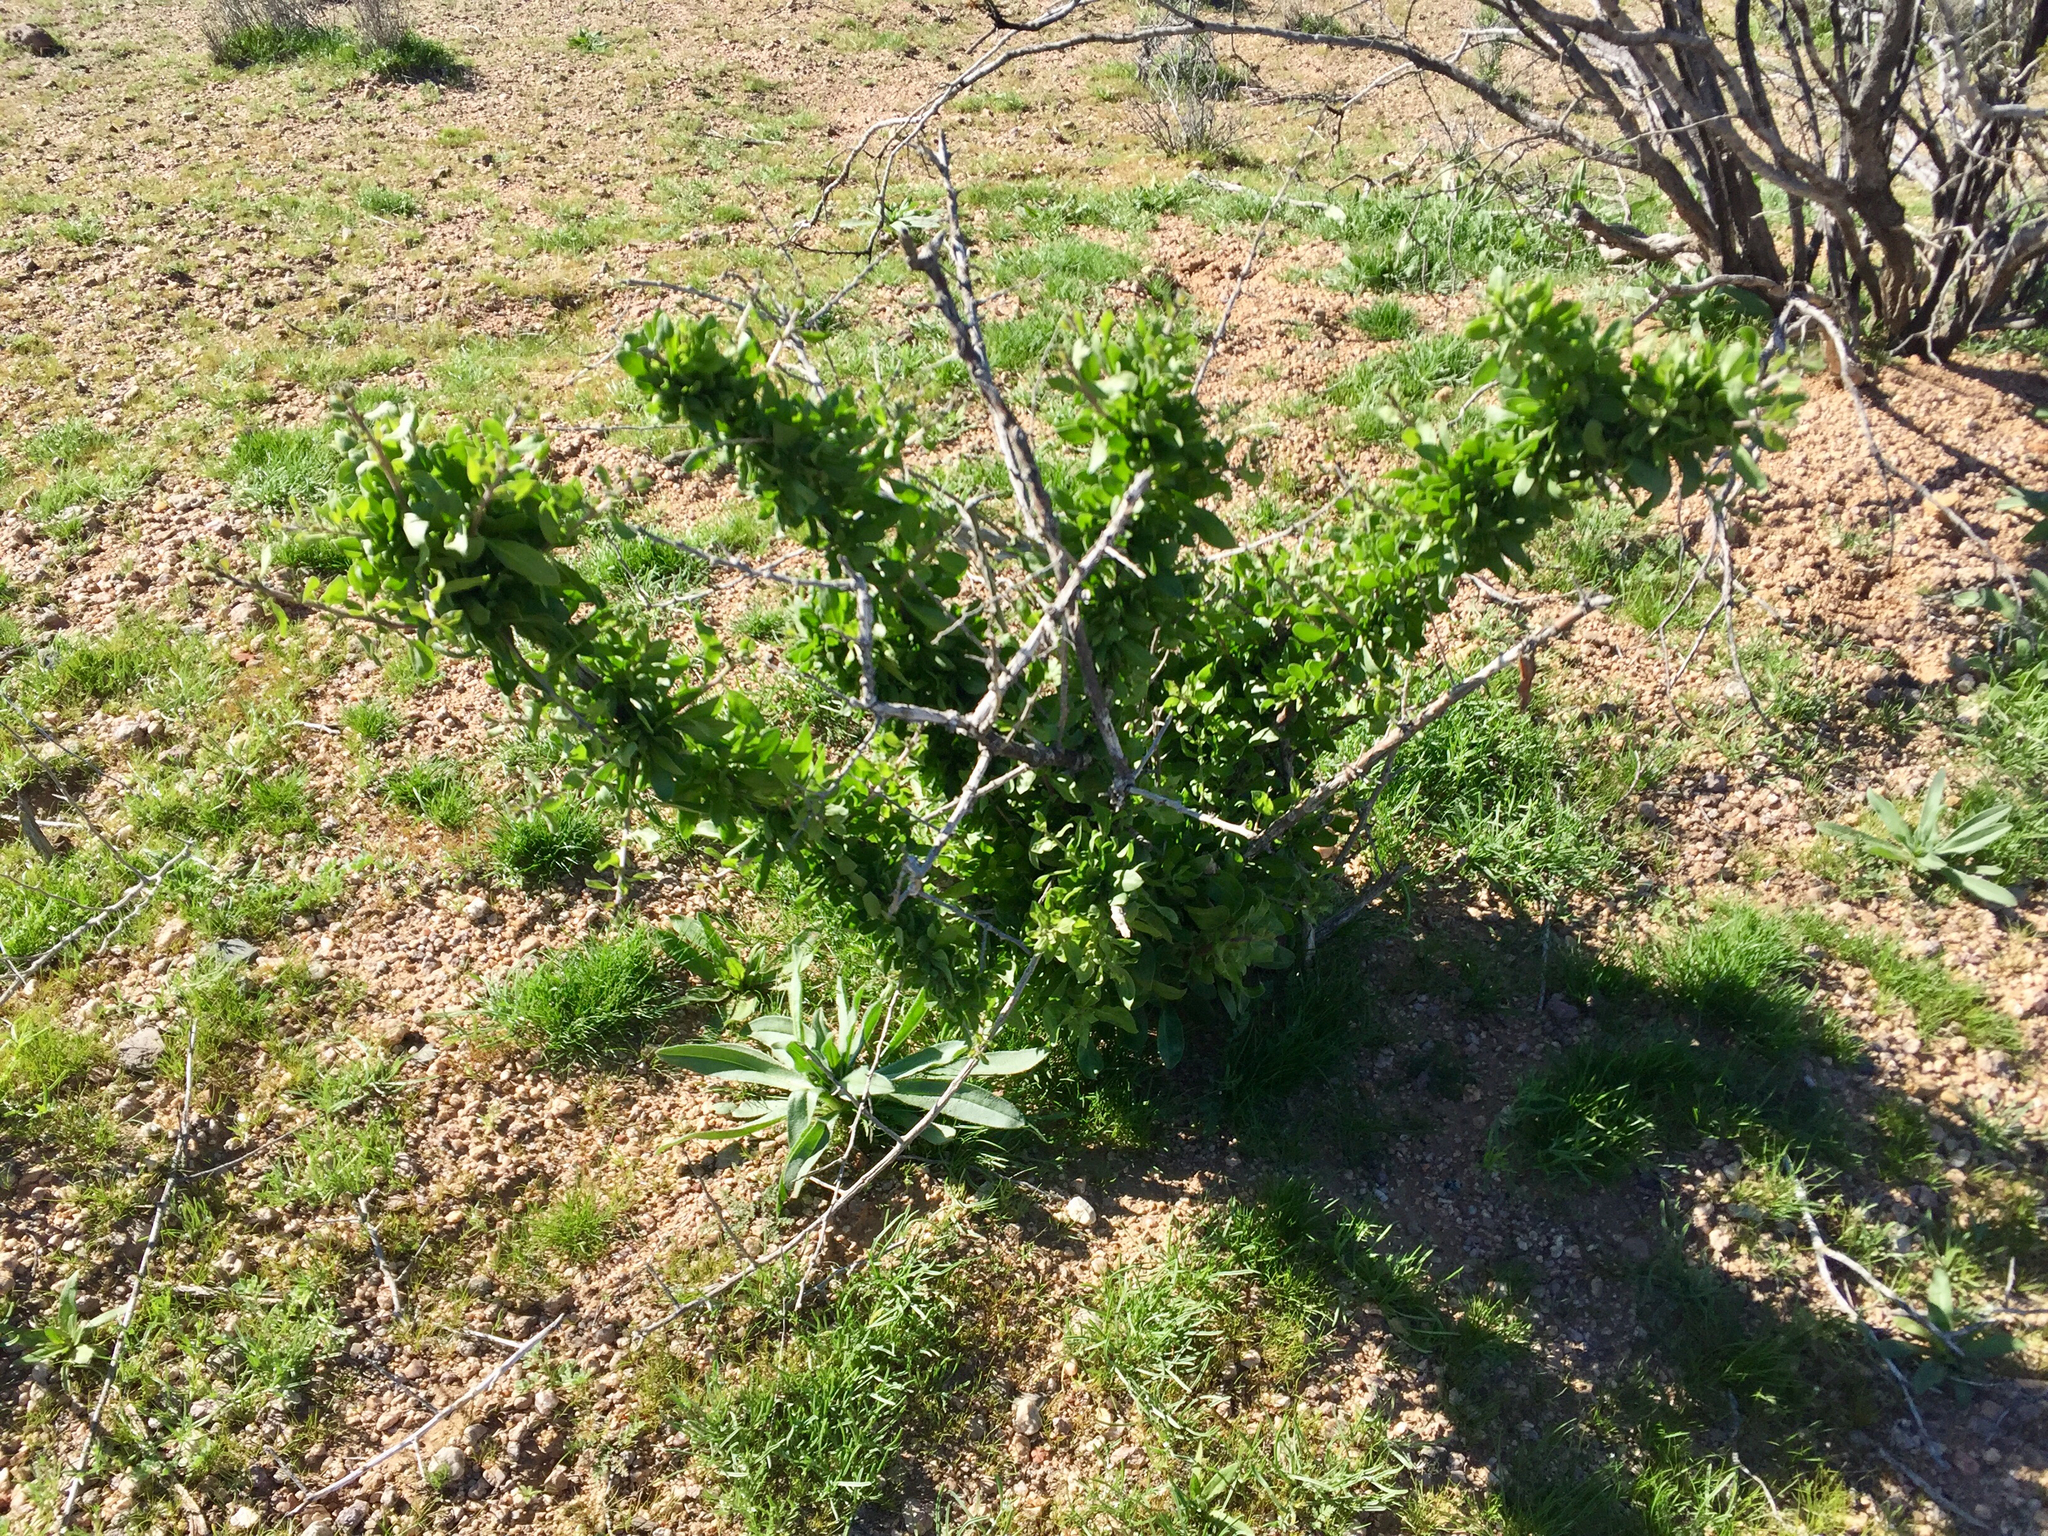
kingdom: Plantae
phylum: Tracheophyta
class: Magnoliopsida
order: Solanales
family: Solanaceae
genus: Lycium
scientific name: Lycium pallidum
